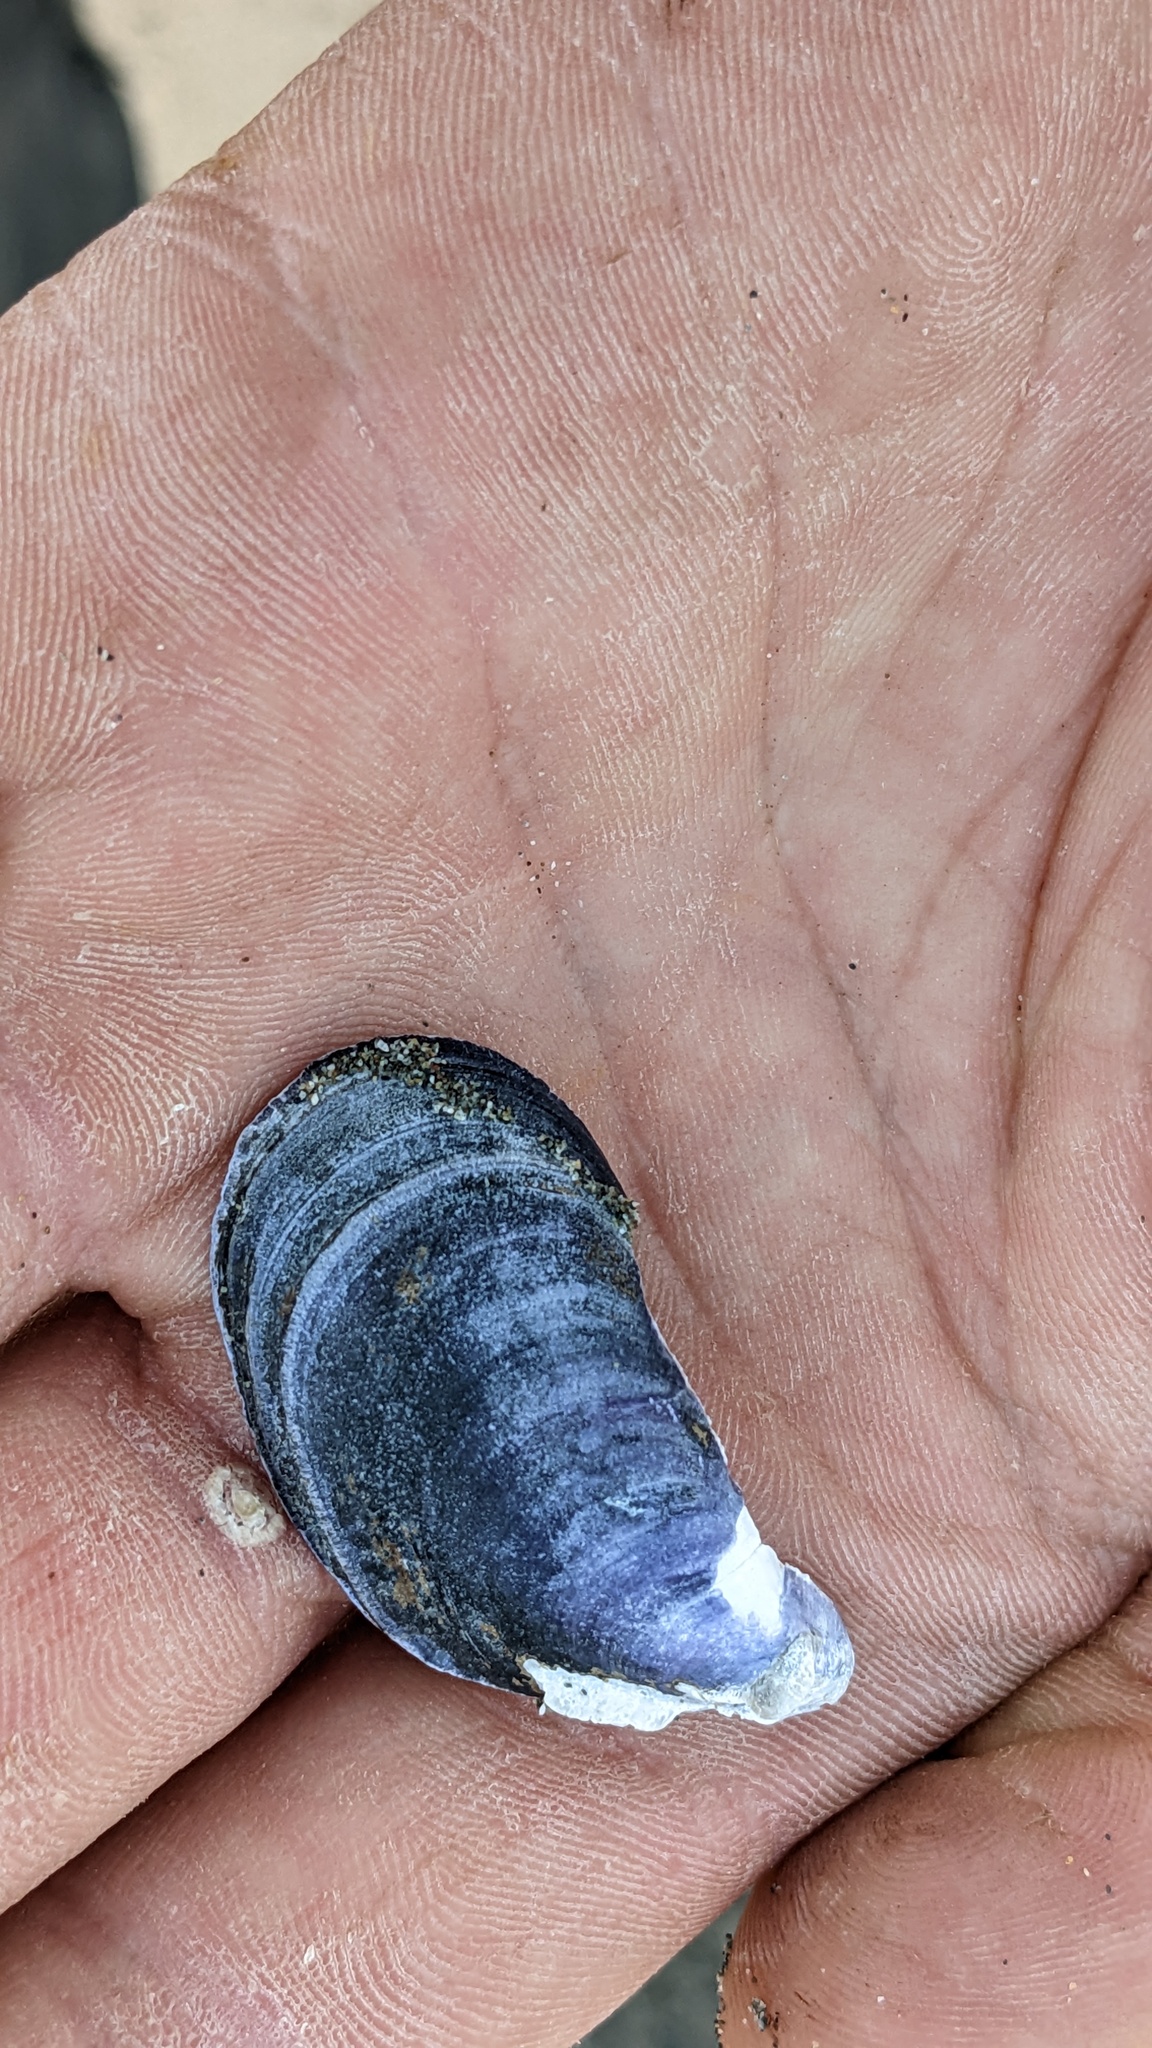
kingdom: Animalia
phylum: Mollusca
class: Bivalvia
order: Mytilida
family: Mytilidae
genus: Mytilus
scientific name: Mytilus
